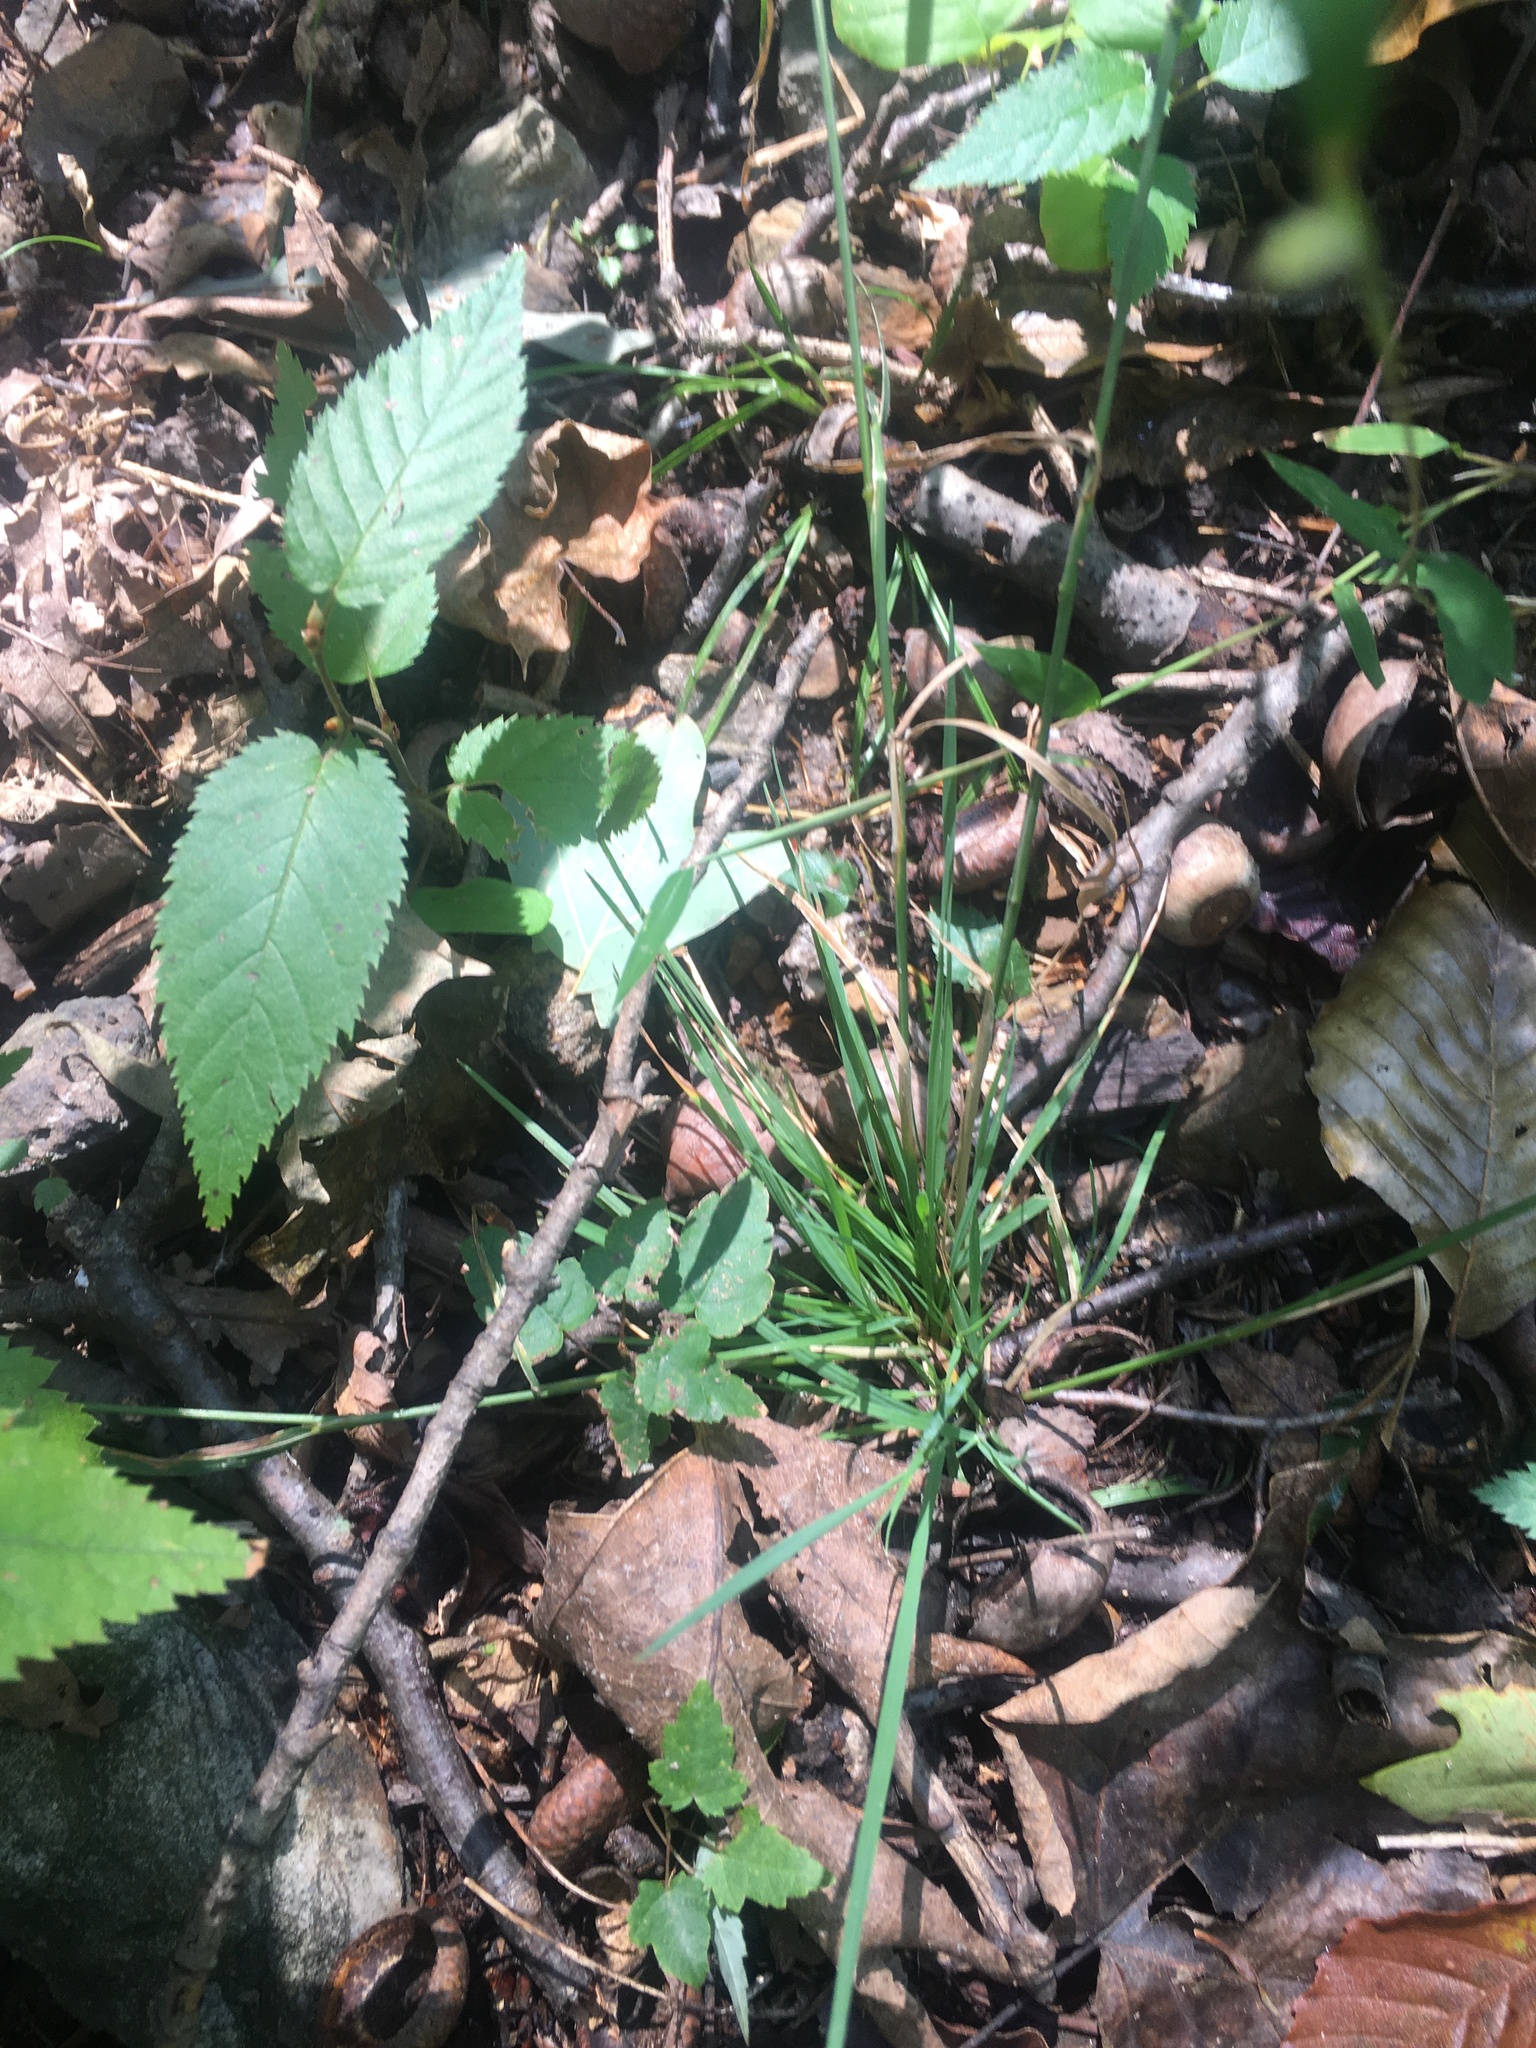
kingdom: Plantae
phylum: Tracheophyta
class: Liliopsida
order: Poales
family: Poaceae
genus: Agrostis
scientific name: Agrostis perennans
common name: Autumn bent
